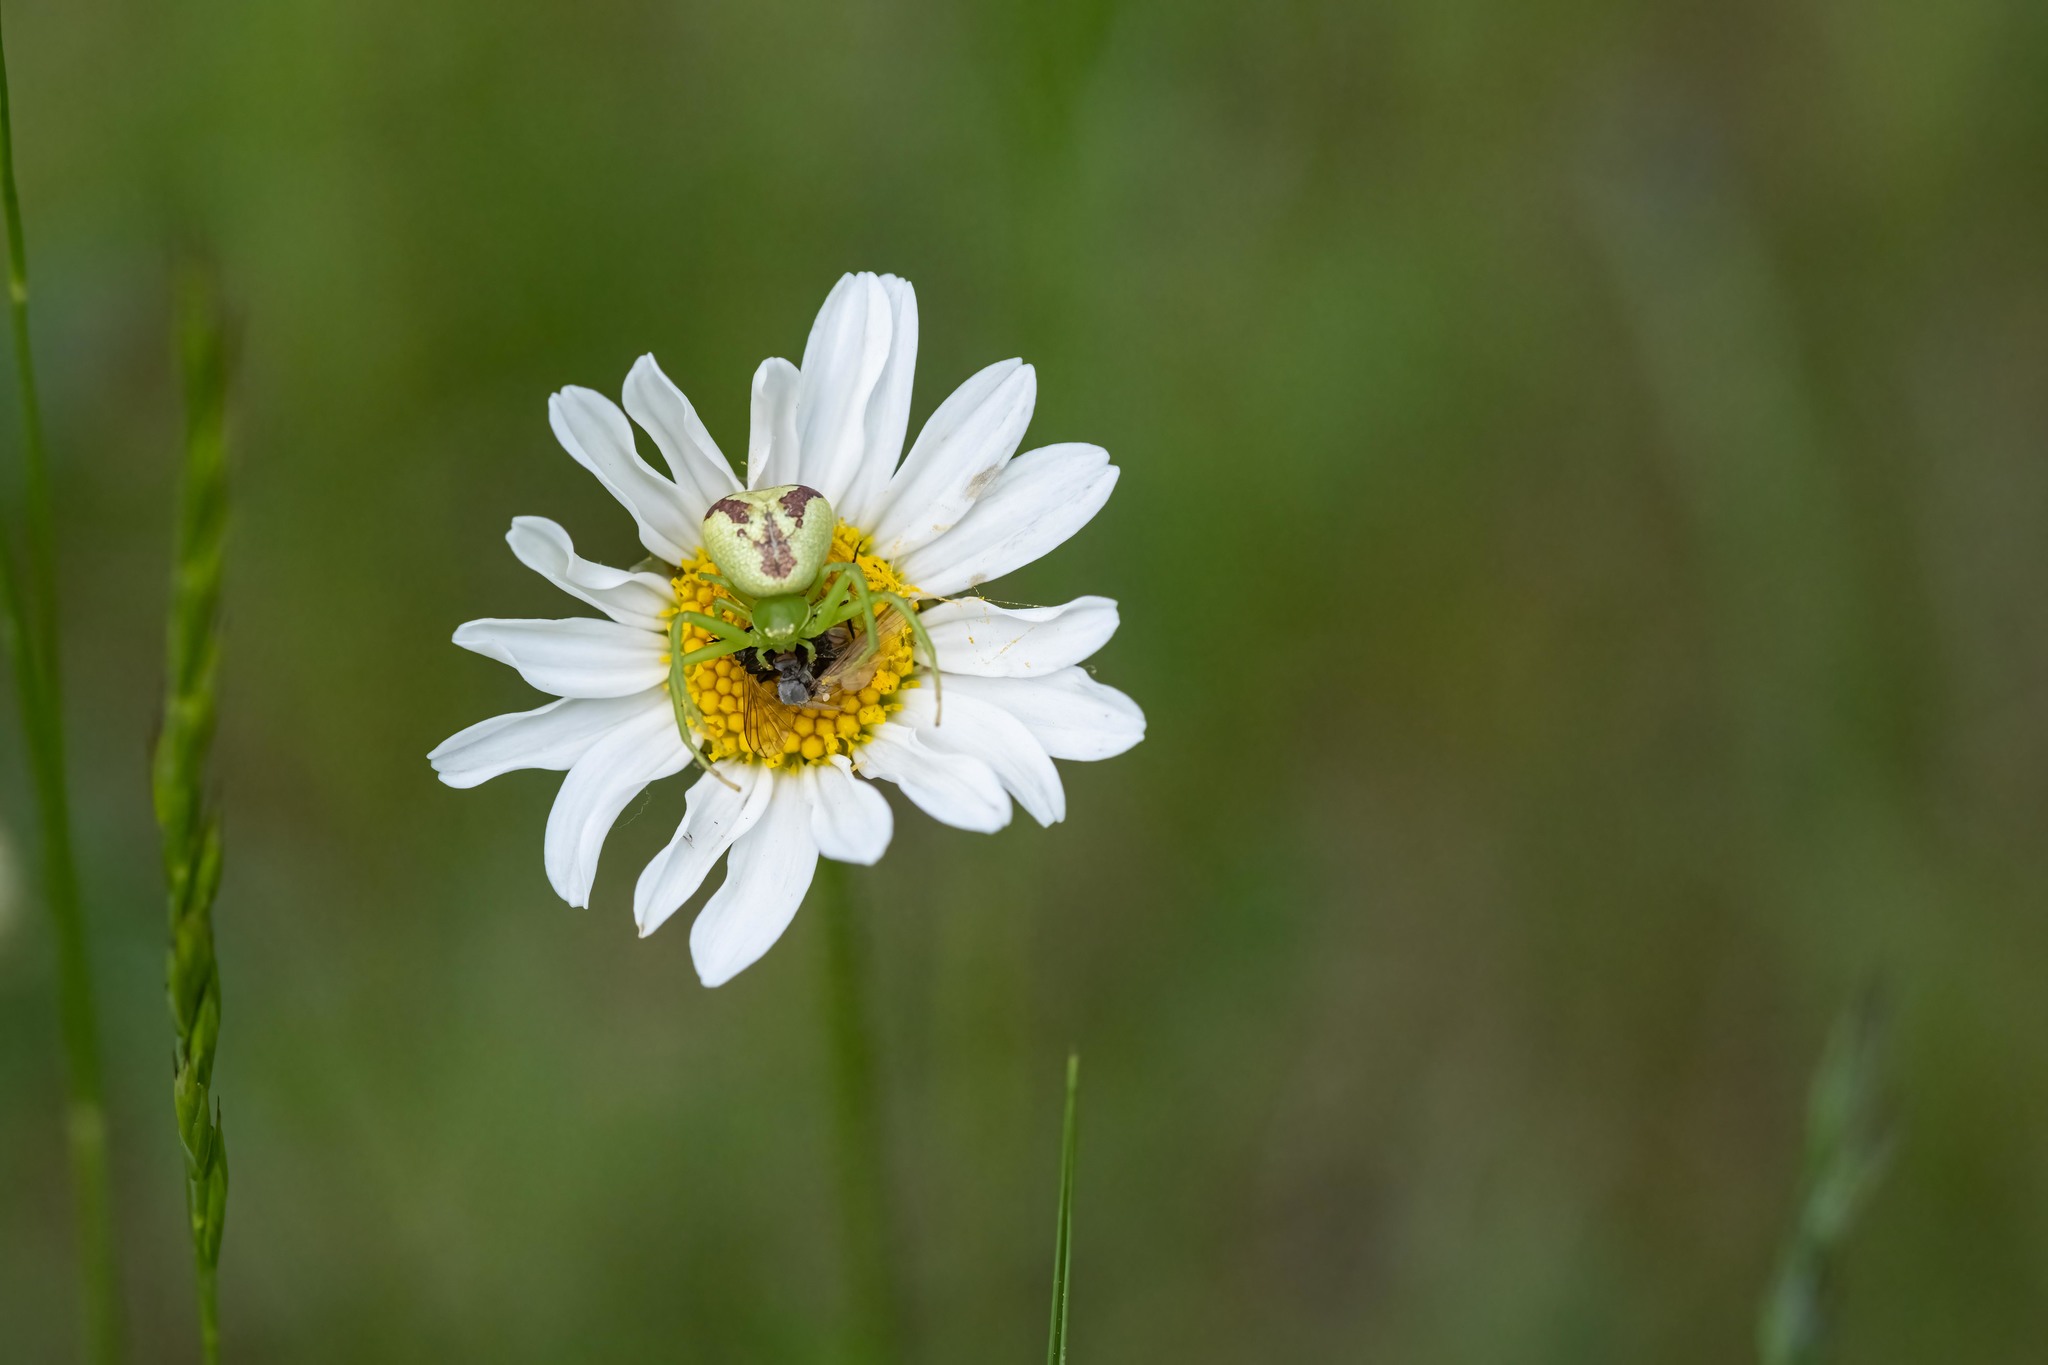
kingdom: Animalia
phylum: Arthropoda
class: Arachnida
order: Araneae
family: Thomisidae
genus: Ebrechtella
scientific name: Ebrechtella tricuspidata
